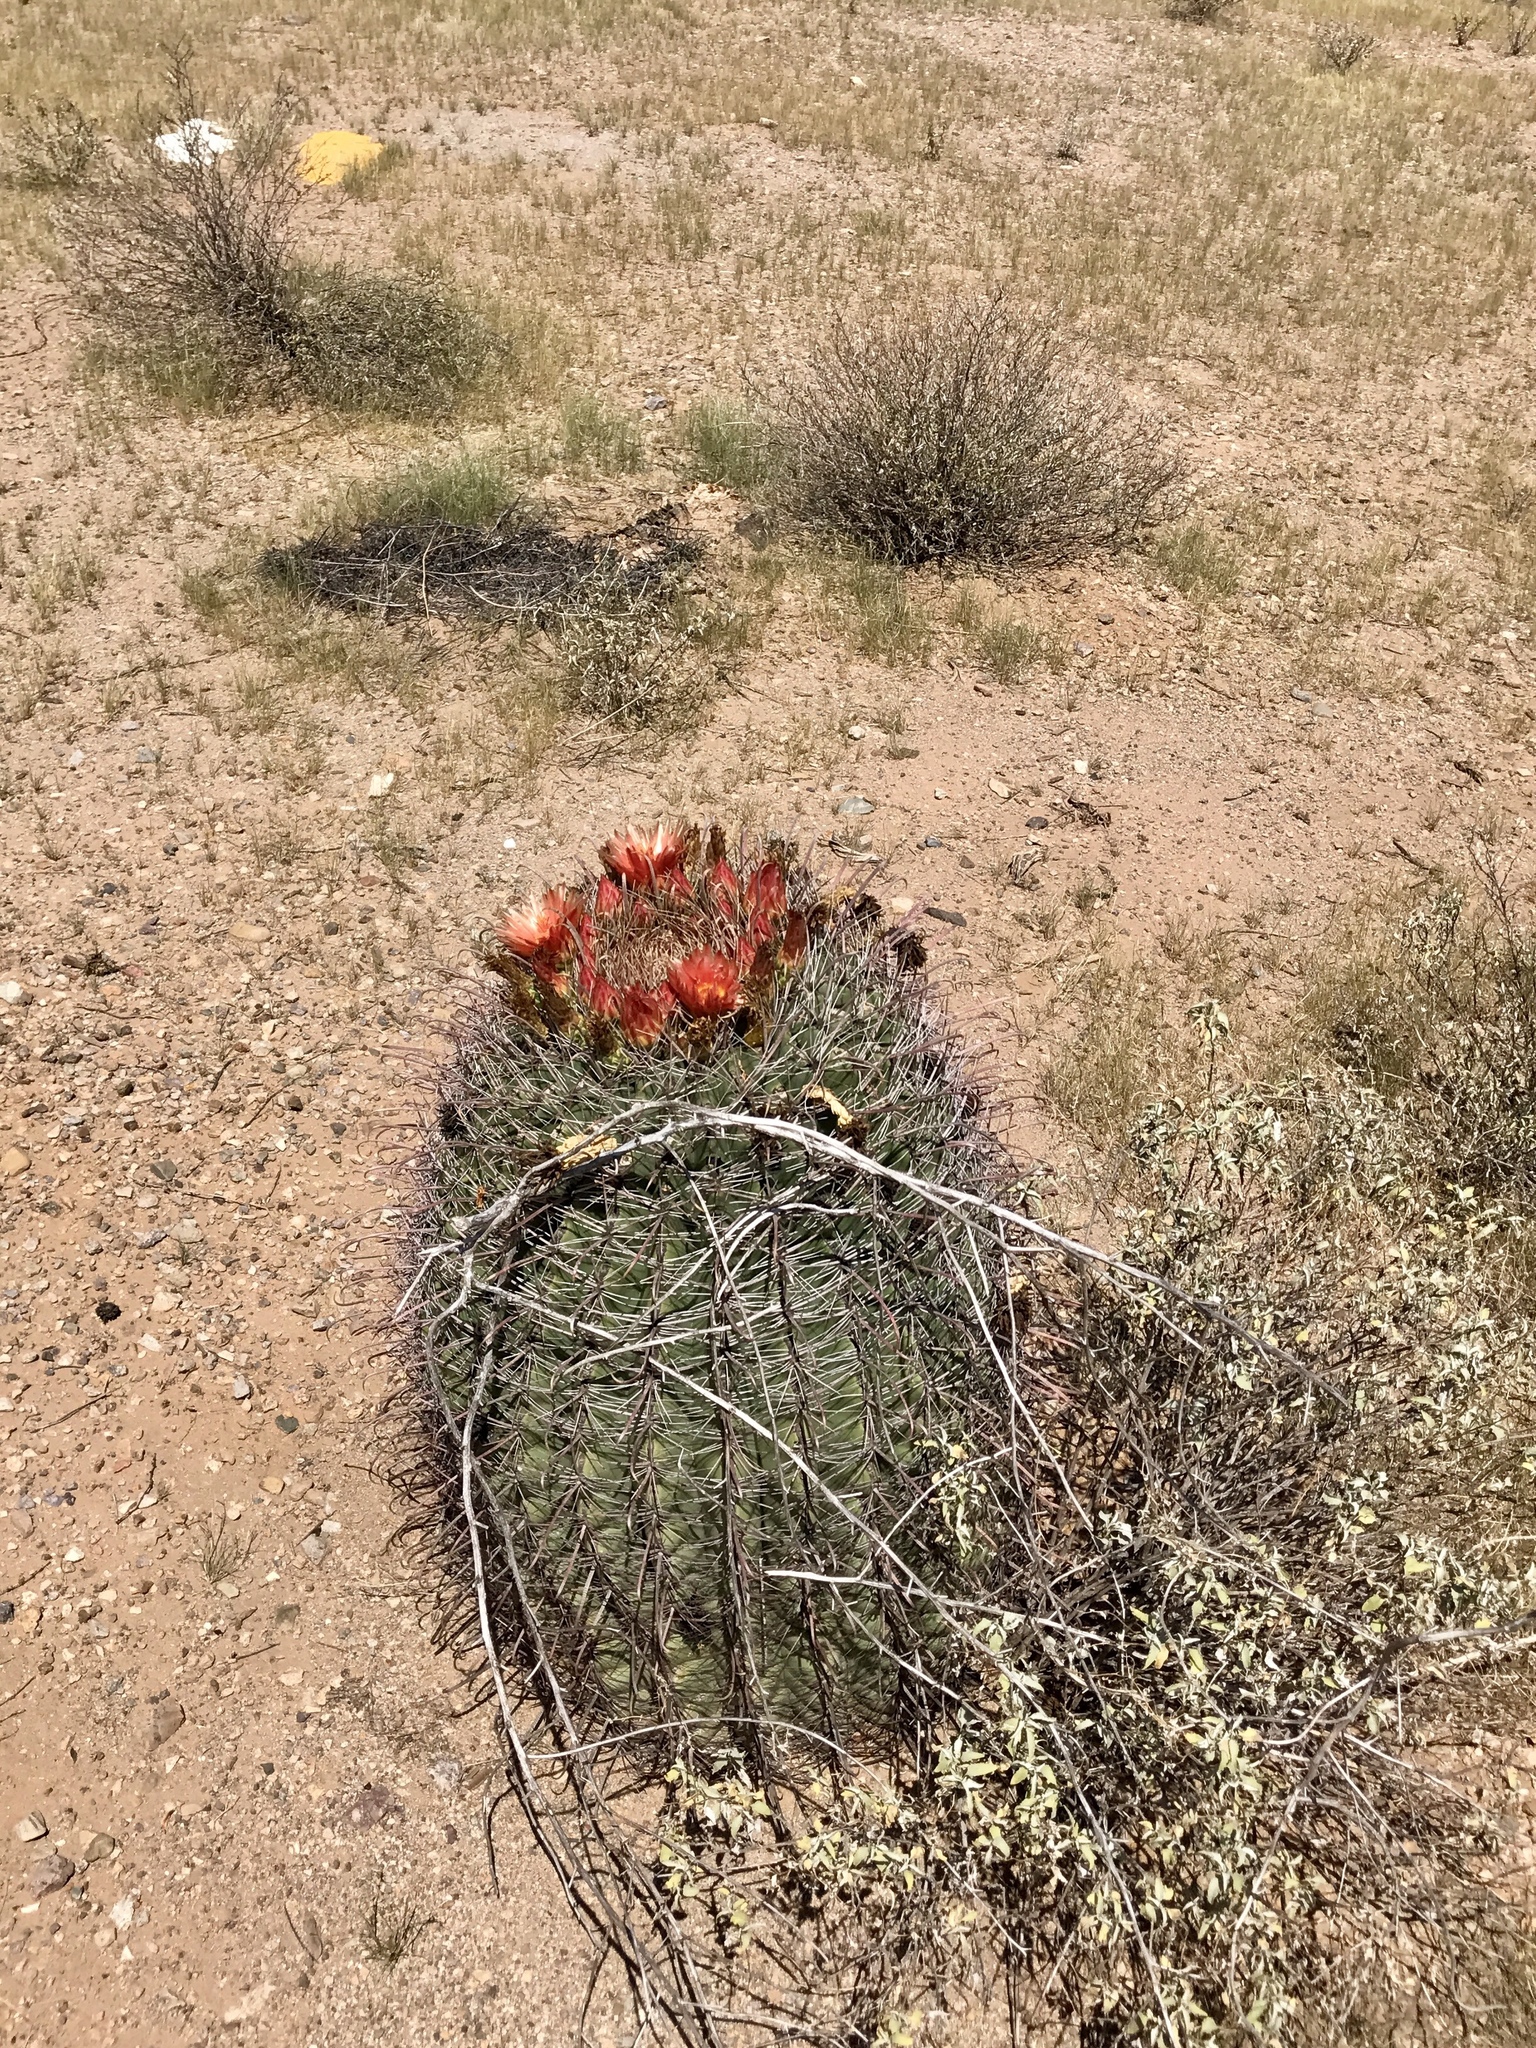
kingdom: Plantae
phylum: Tracheophyta
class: Magnoliopsida
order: Caryophyllales
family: Cactaceae
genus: Ferocactus
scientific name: Ferocactus wislizeni
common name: Candy barrel cactus
